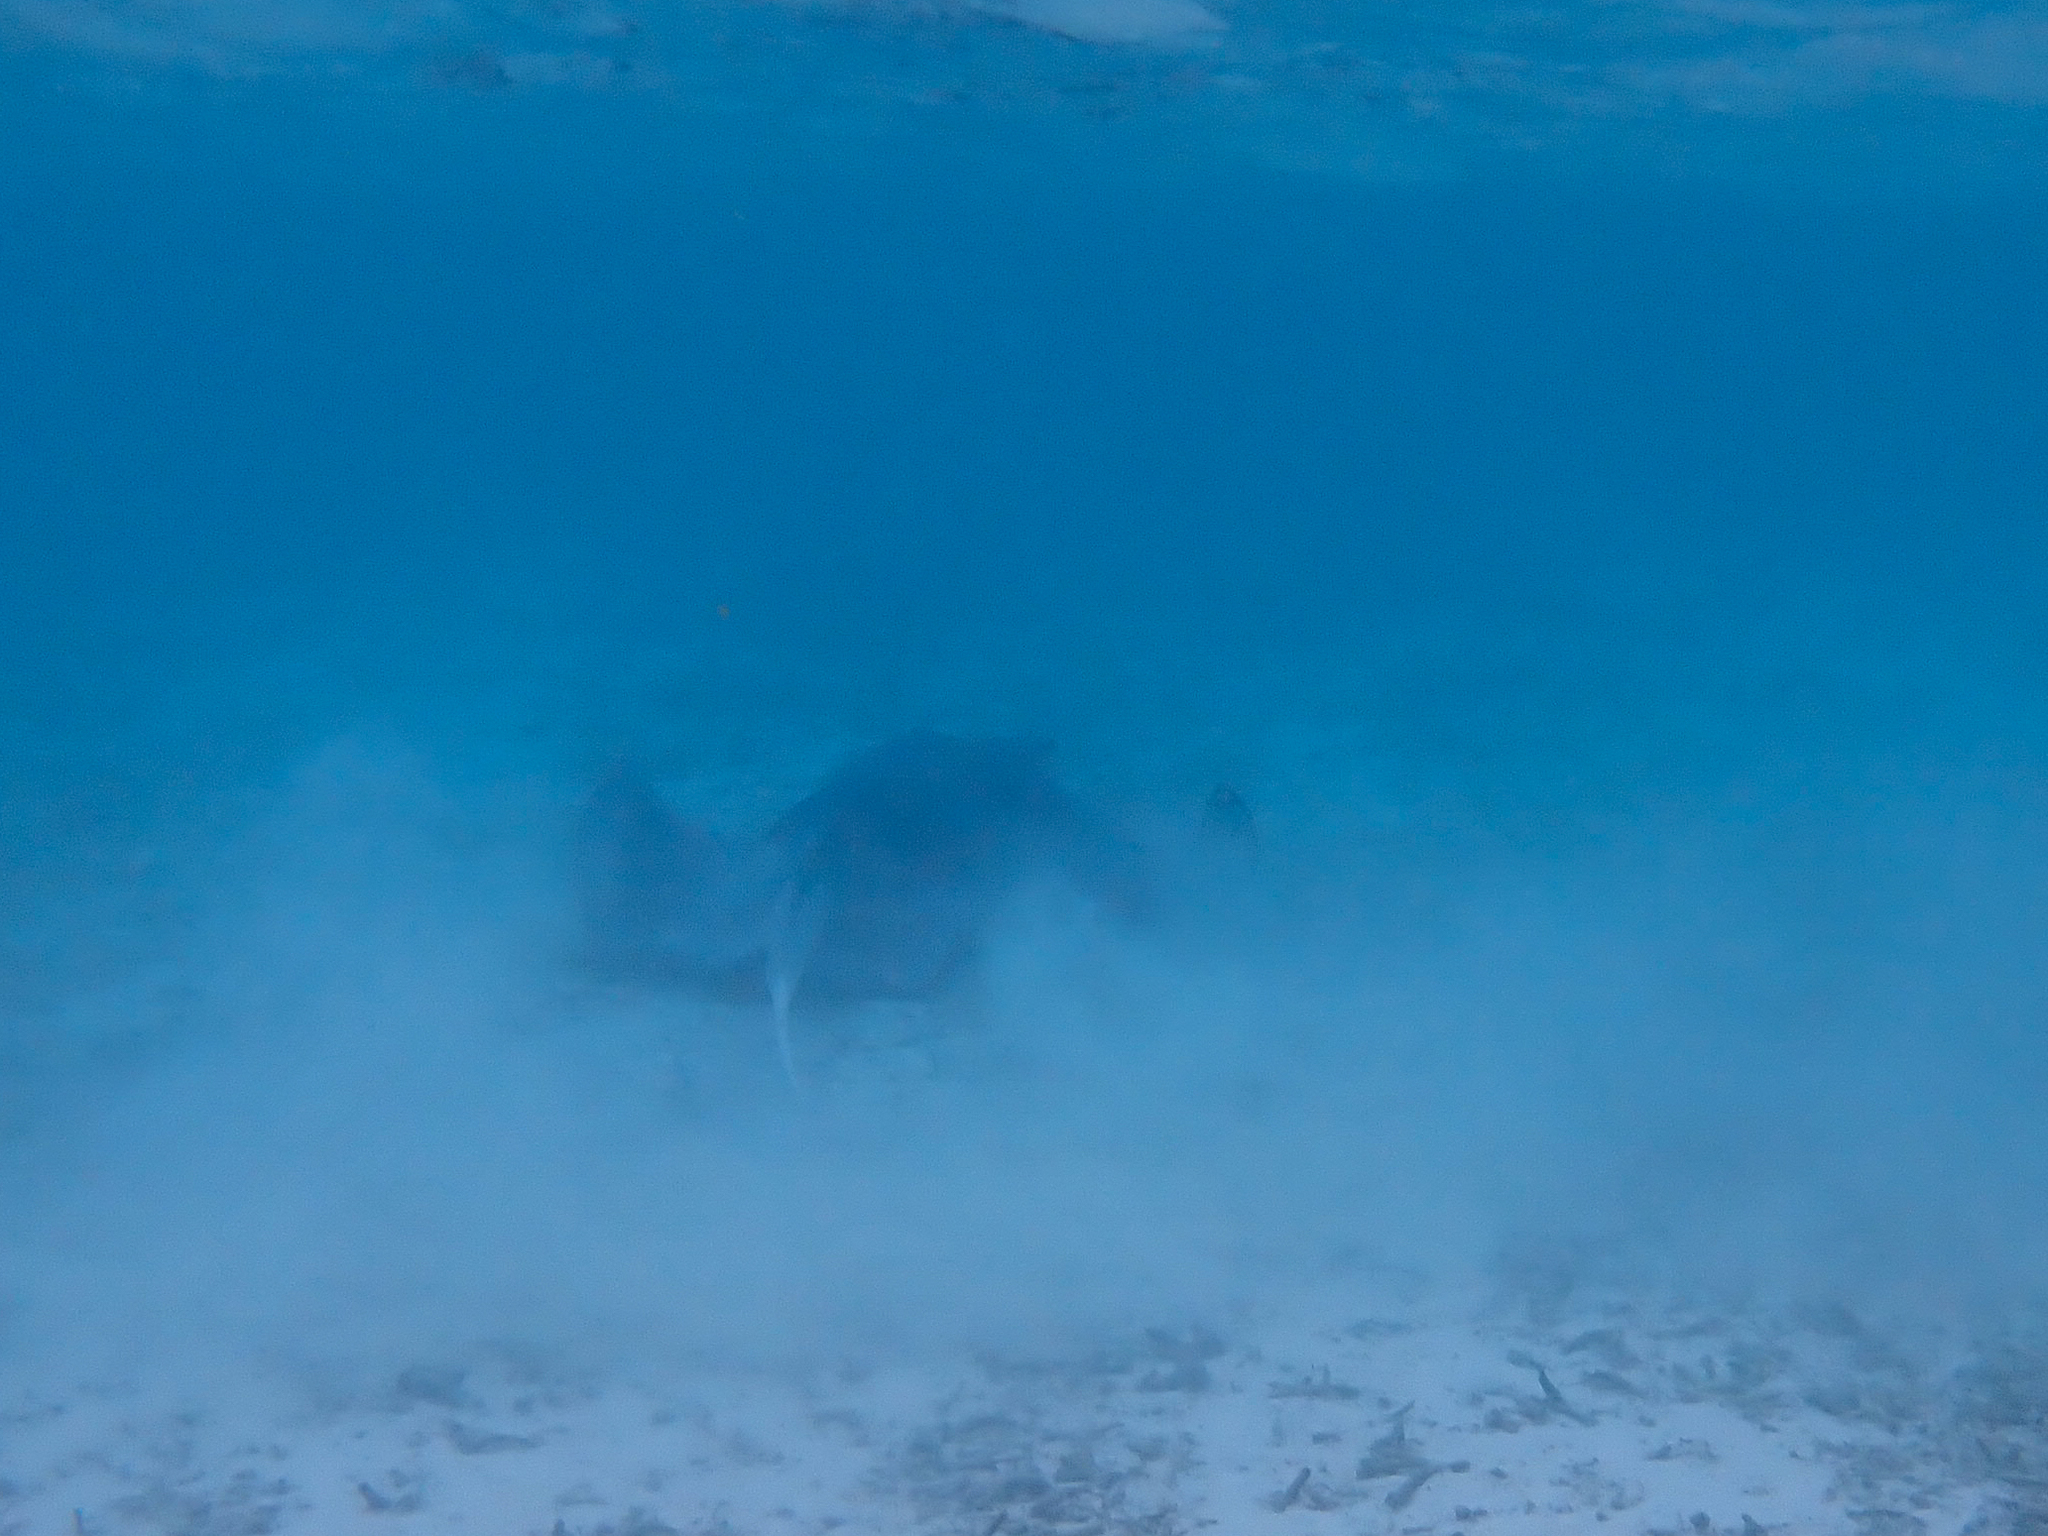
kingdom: Animalia
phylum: Chordata
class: Elasmobranchii
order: Myliobatiformes
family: Dasyatidae
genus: Urogymnus
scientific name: Urogymnus granulatus
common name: Mangrove whipray
